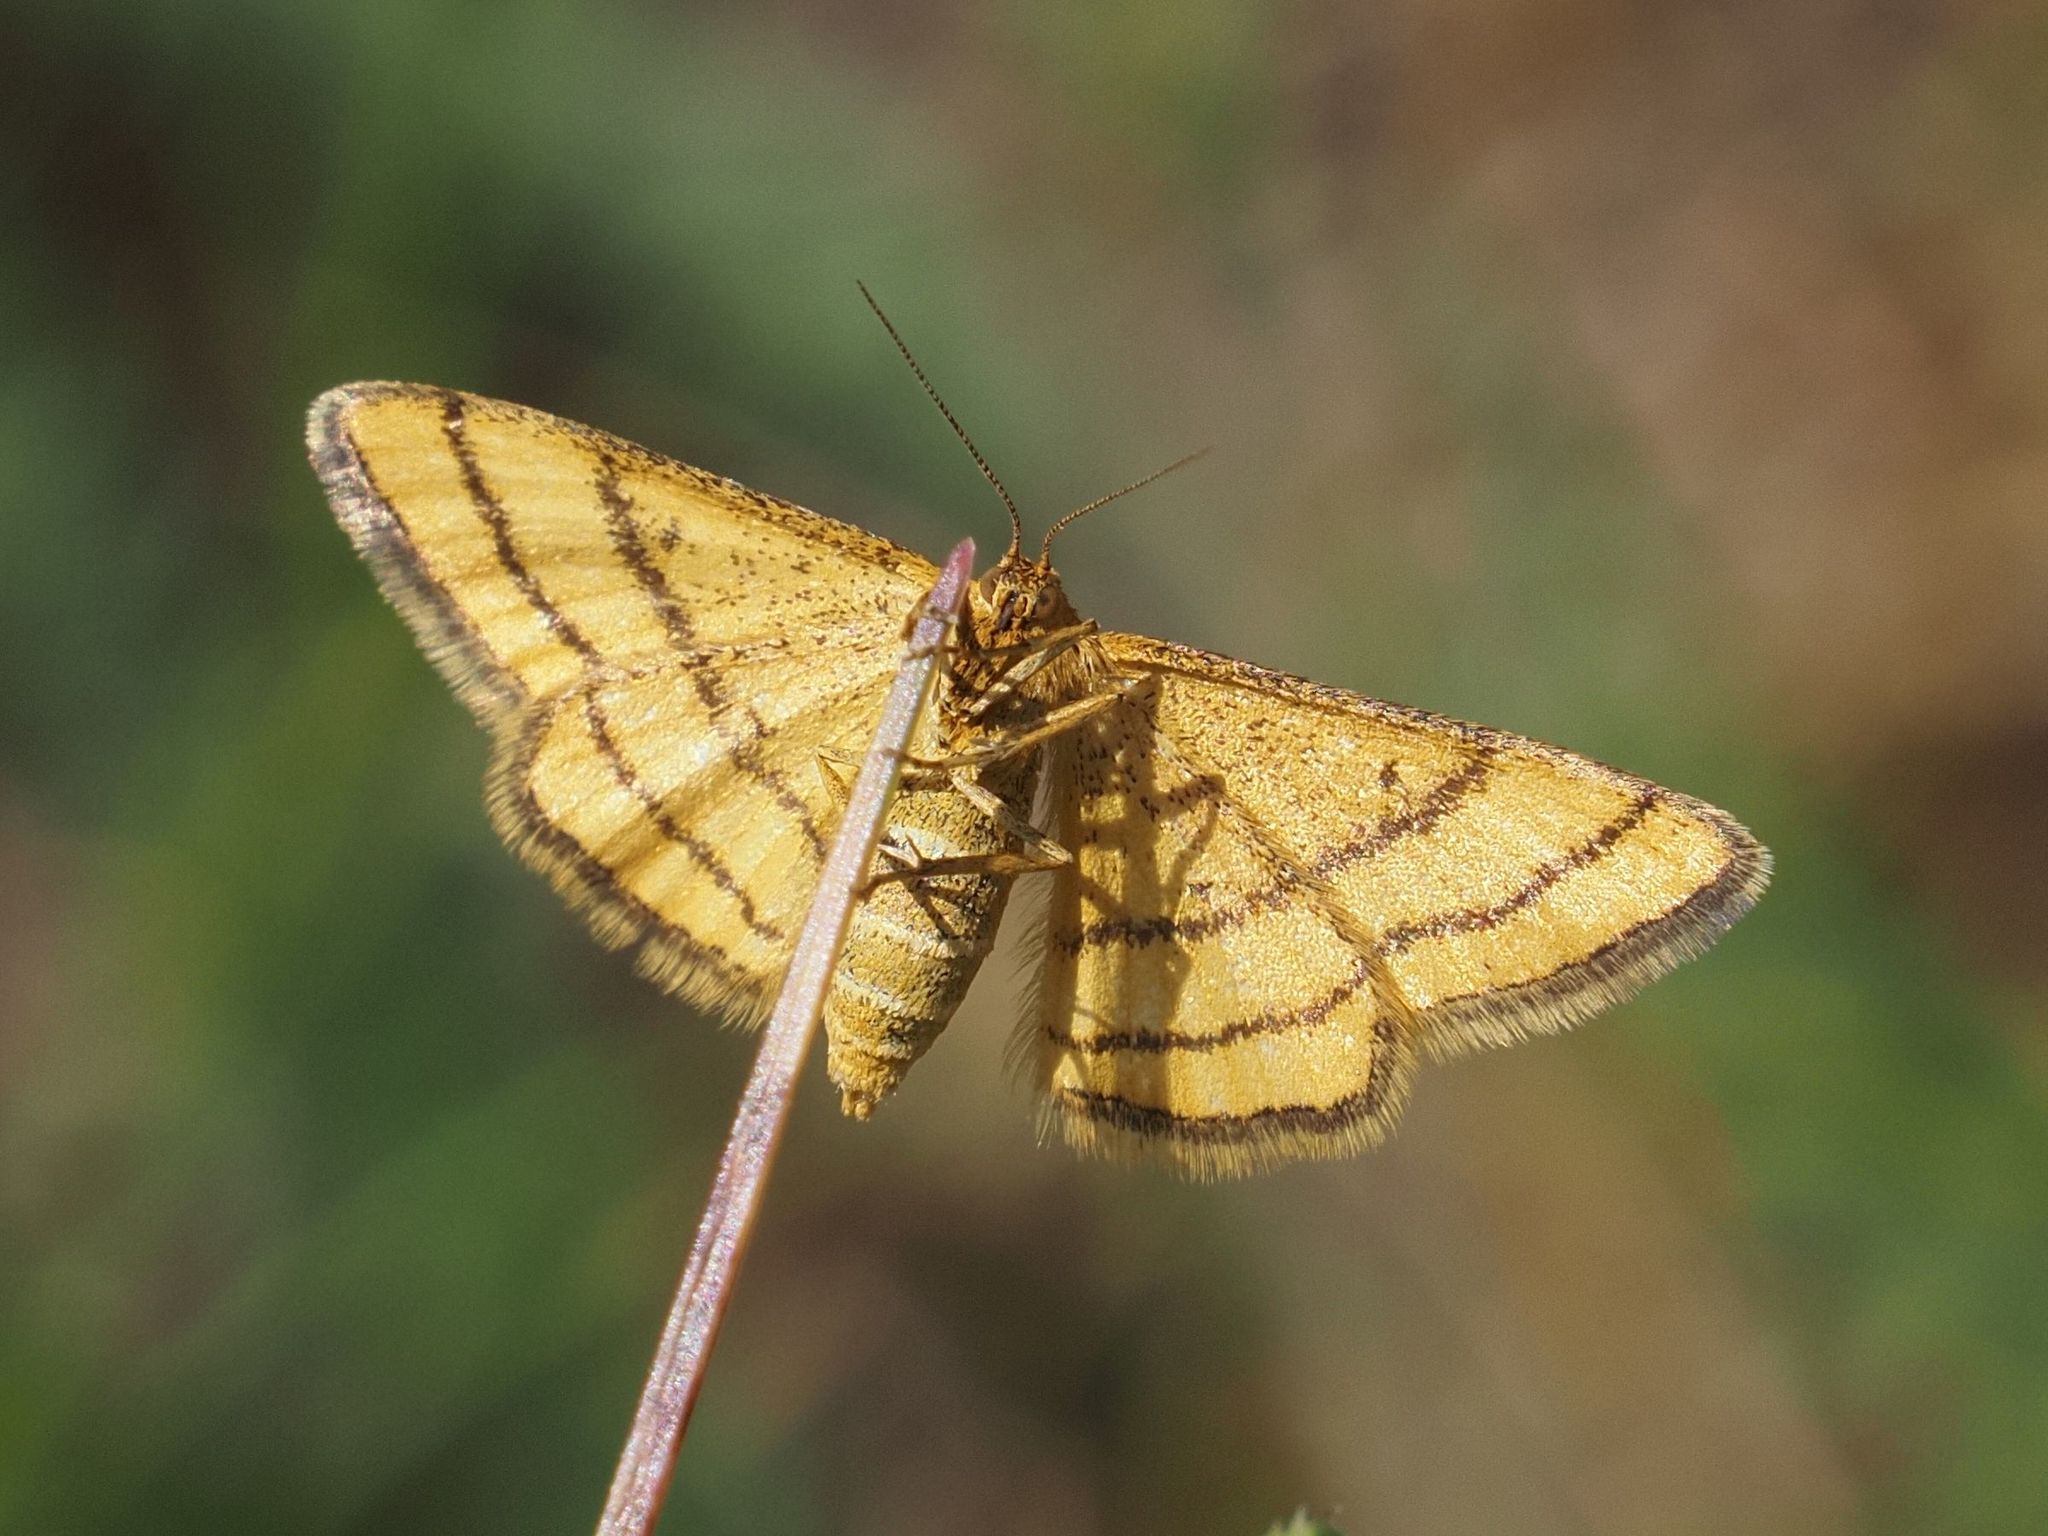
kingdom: Animalia
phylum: Arthropoda
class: Insecta
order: Lepidoptera
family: Geometridae
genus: Idaea
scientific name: Idaea aureolaria
